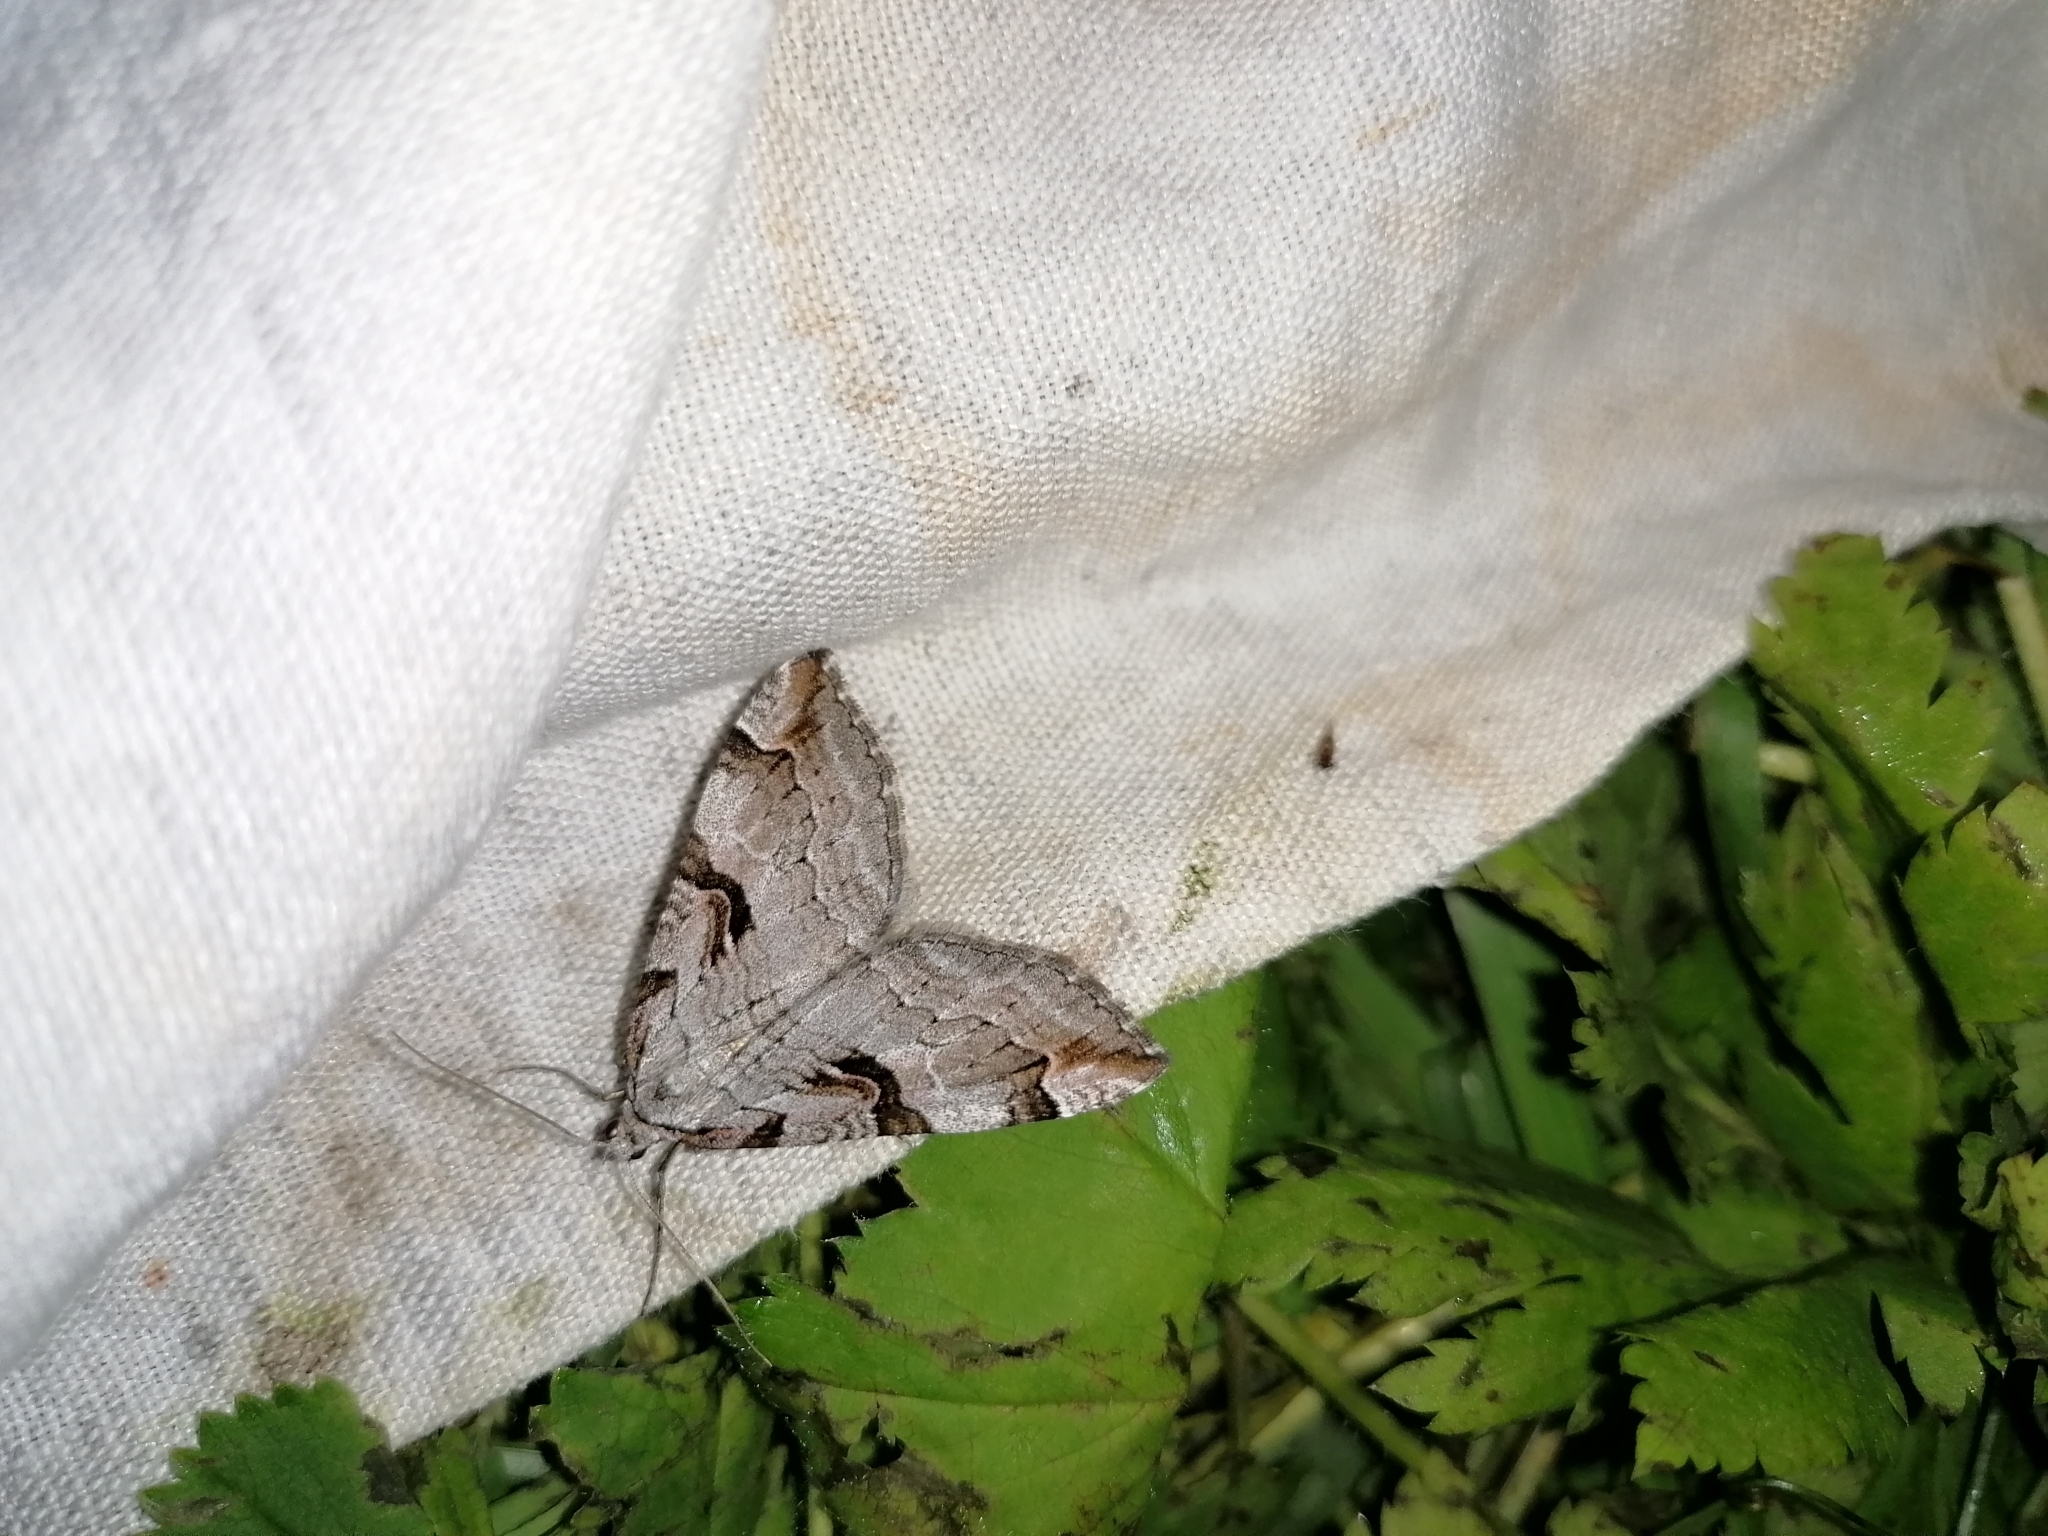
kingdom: Animalia
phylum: Arthropoda
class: Insecta
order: Lepidoptera
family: Geometridae
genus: Aplocera
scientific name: Aplocera praeformata
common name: Purple treble-bar
